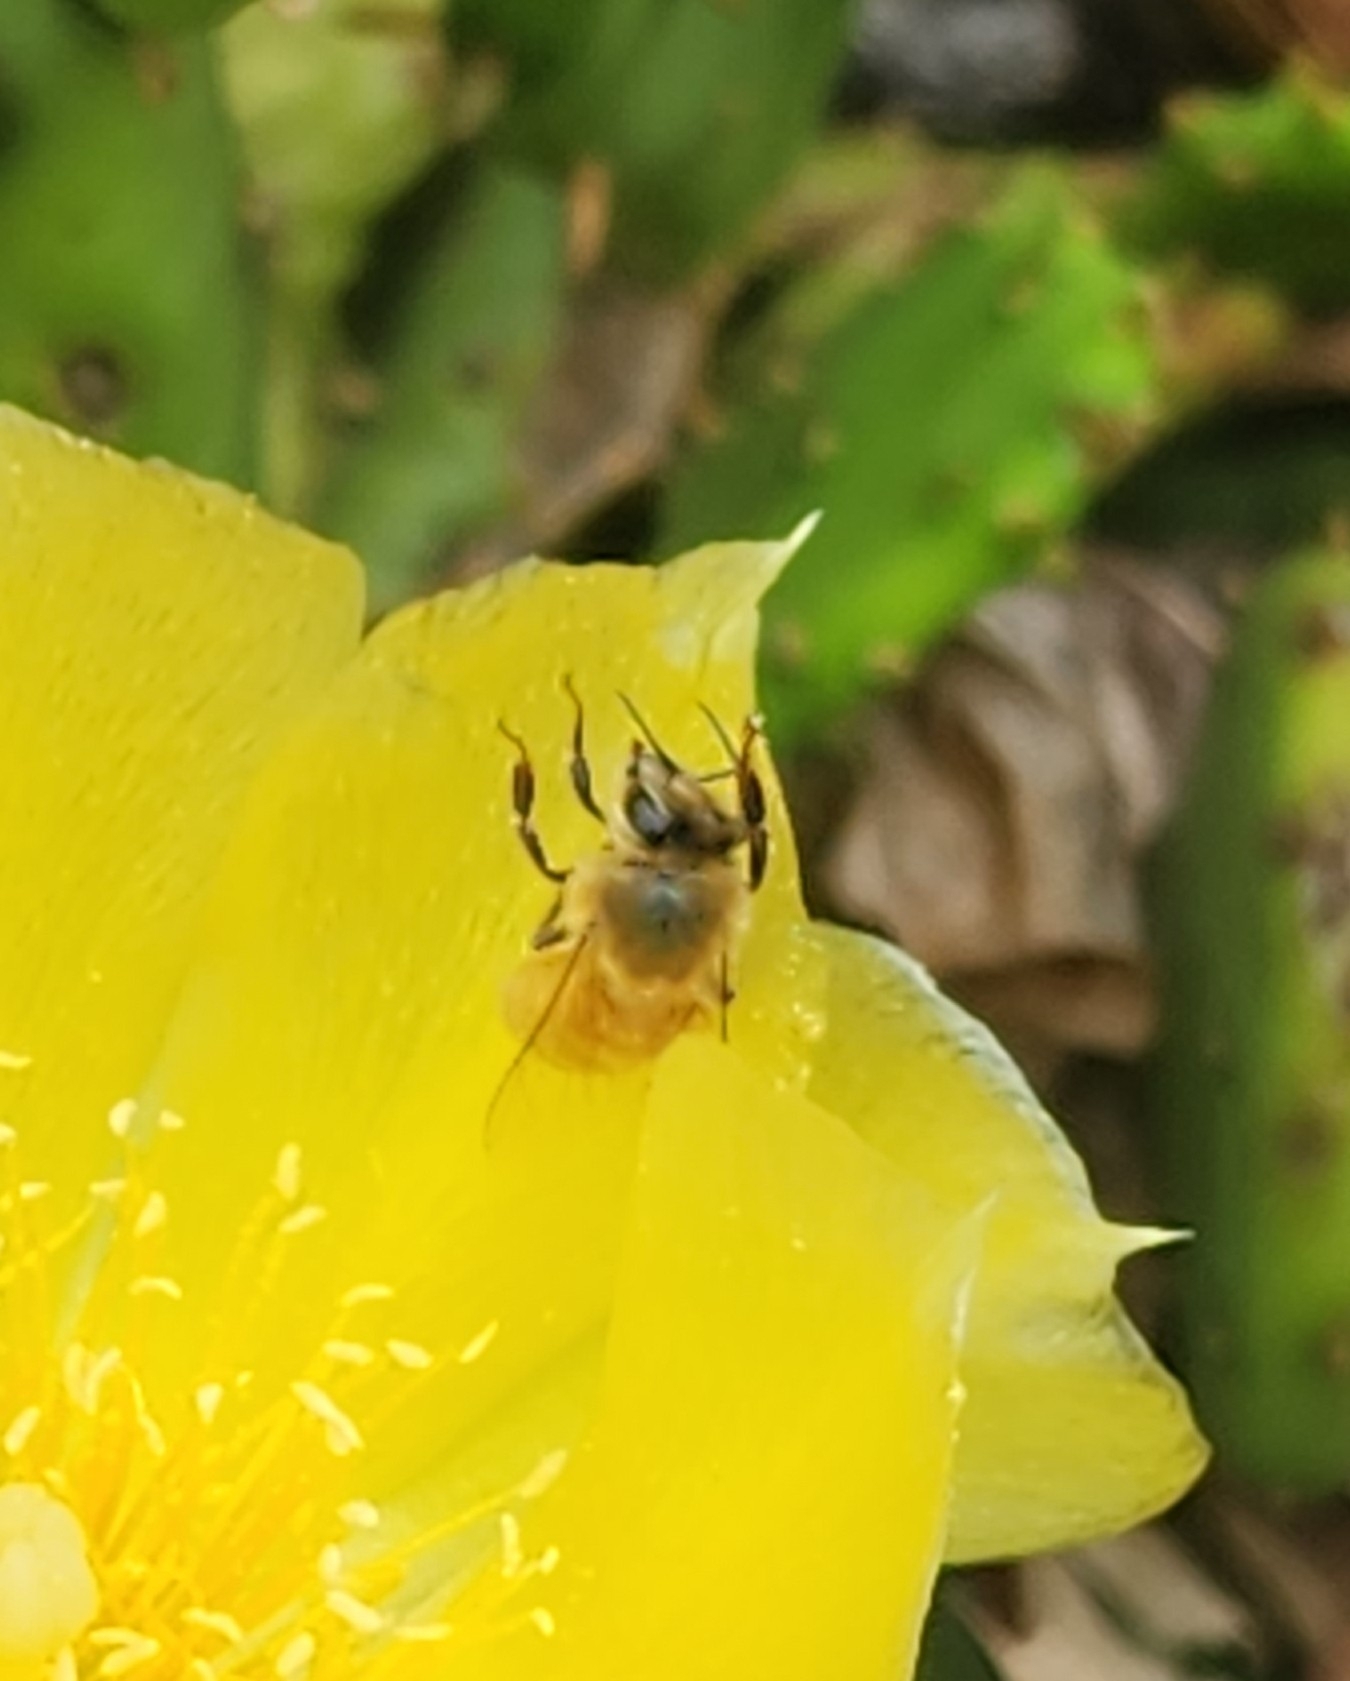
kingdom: Animalia
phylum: Arthropoda
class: Insecta
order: Hymenoptera
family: Apidae
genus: Apis
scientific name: Apis mellifera
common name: Honey bee
